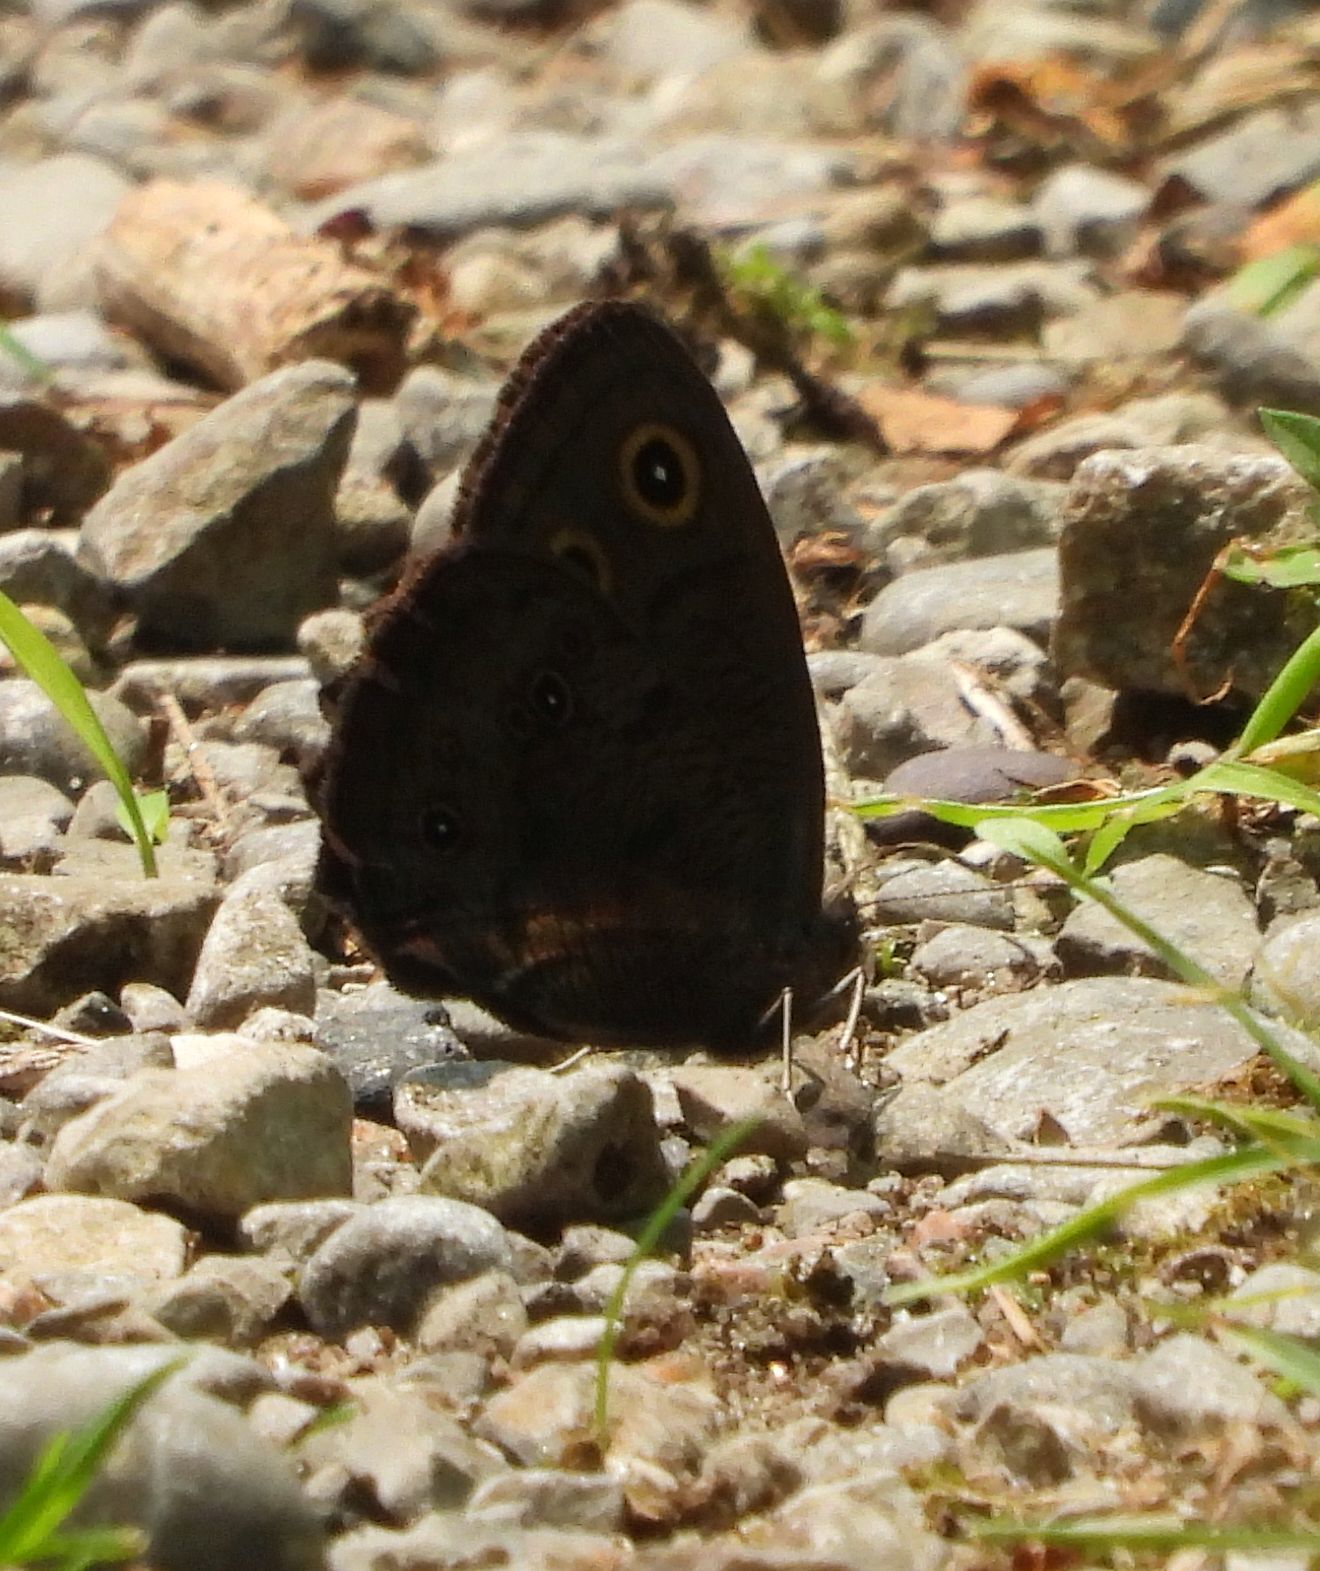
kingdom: Animalia
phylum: Arthropoda
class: Insecta
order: Lepidoptera
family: Nymphalidae
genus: Cercyonis
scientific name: Cercyonis pegala
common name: Common wood-nymph
